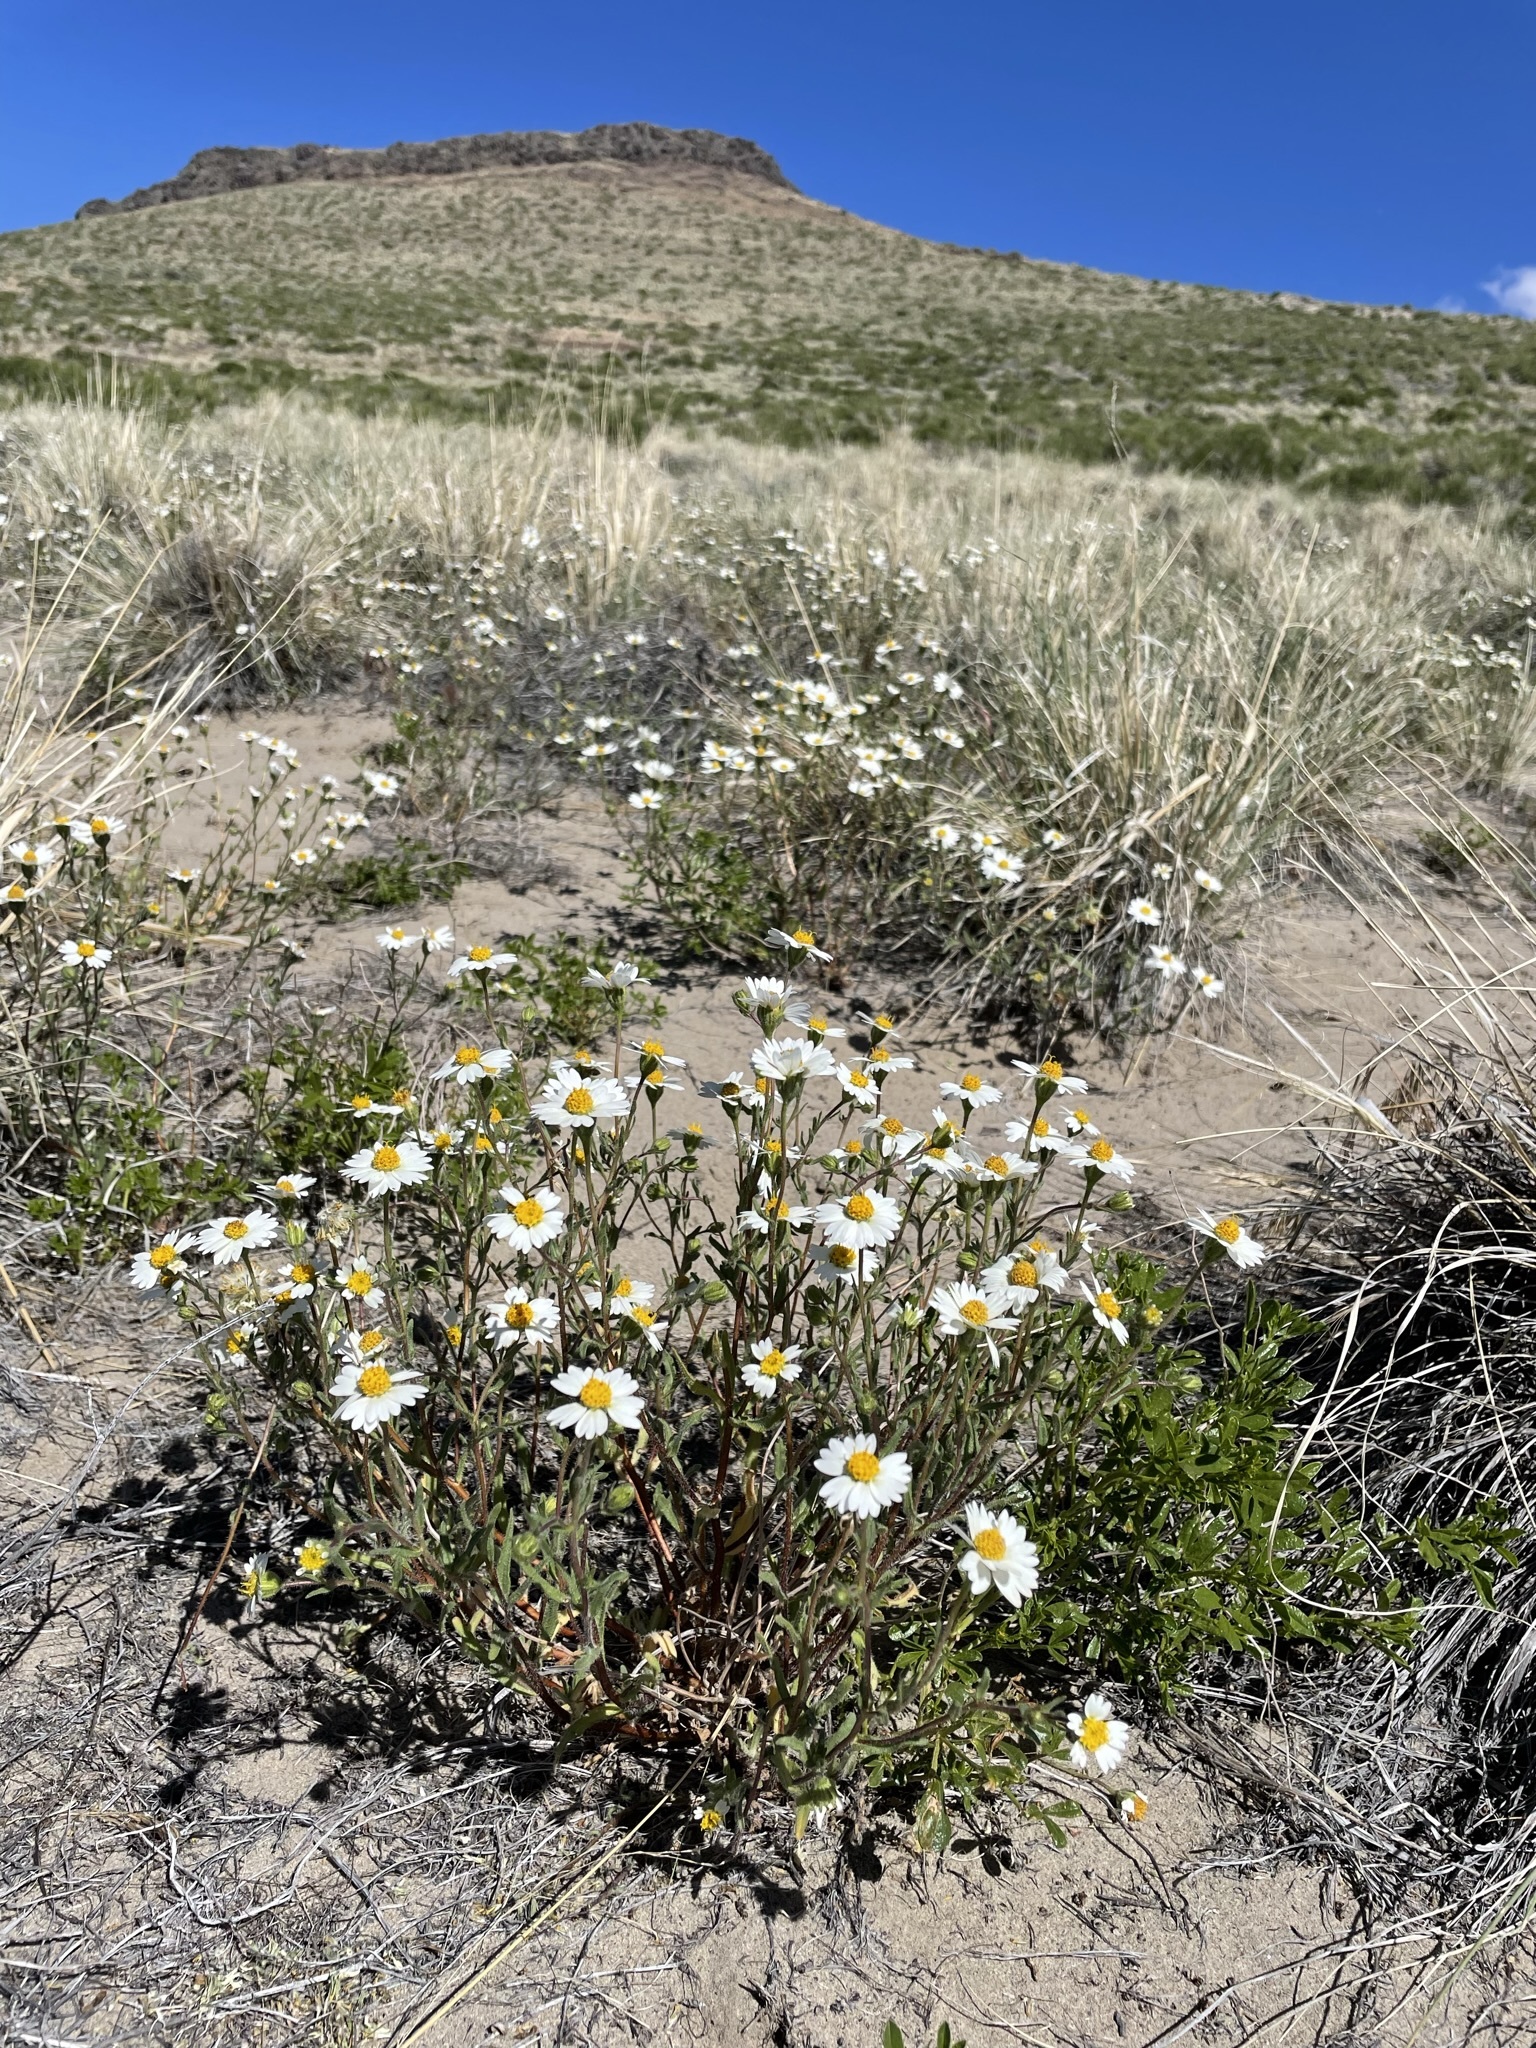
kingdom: Plantae
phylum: Tracheophyta
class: Magnoliopsida
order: Asterales
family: Asteraceae
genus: Layia
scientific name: Layia glandulosa
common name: White layia
